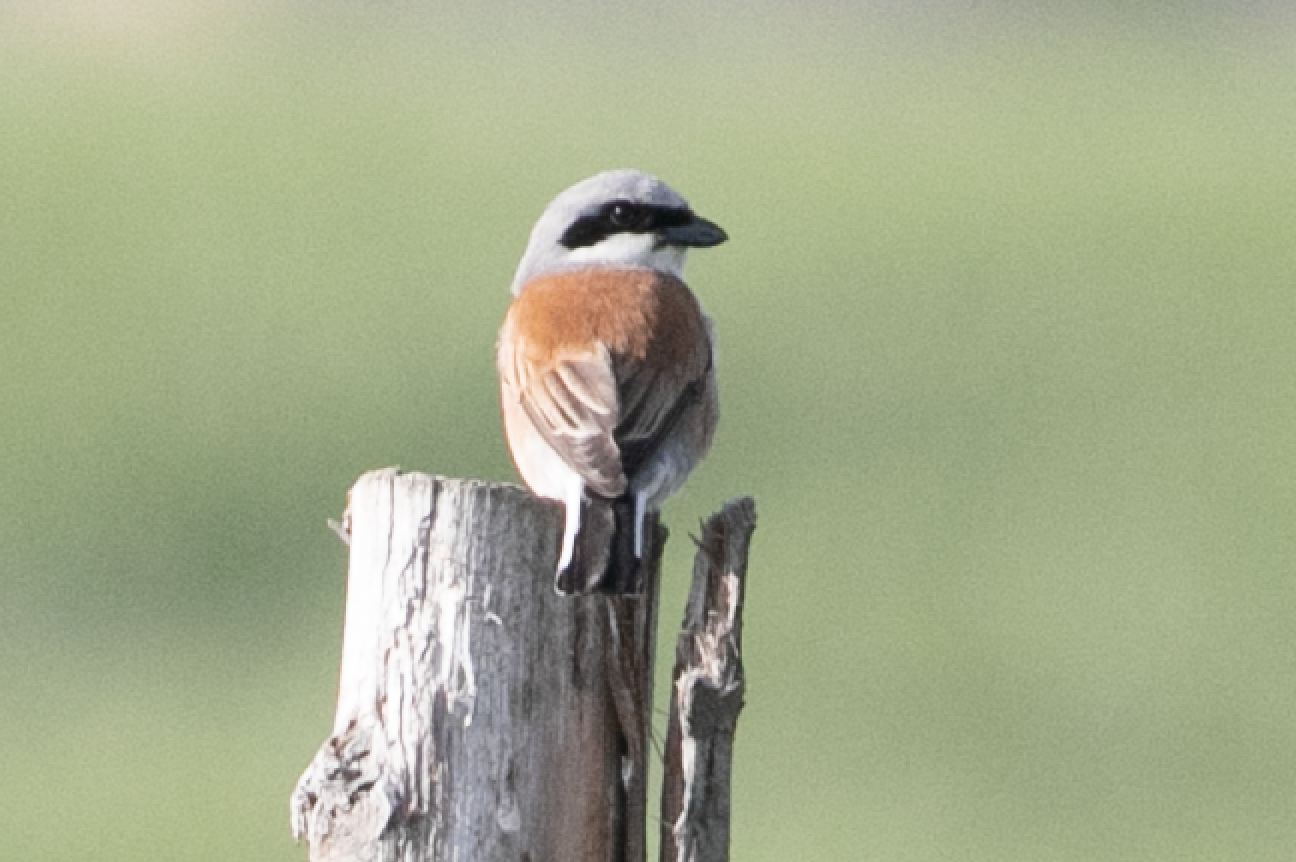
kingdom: Animalia
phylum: Chordata
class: Aves
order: Passeriformes
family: Laniidae
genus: Lanius
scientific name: Lanius collurio
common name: Red-backed shrike
